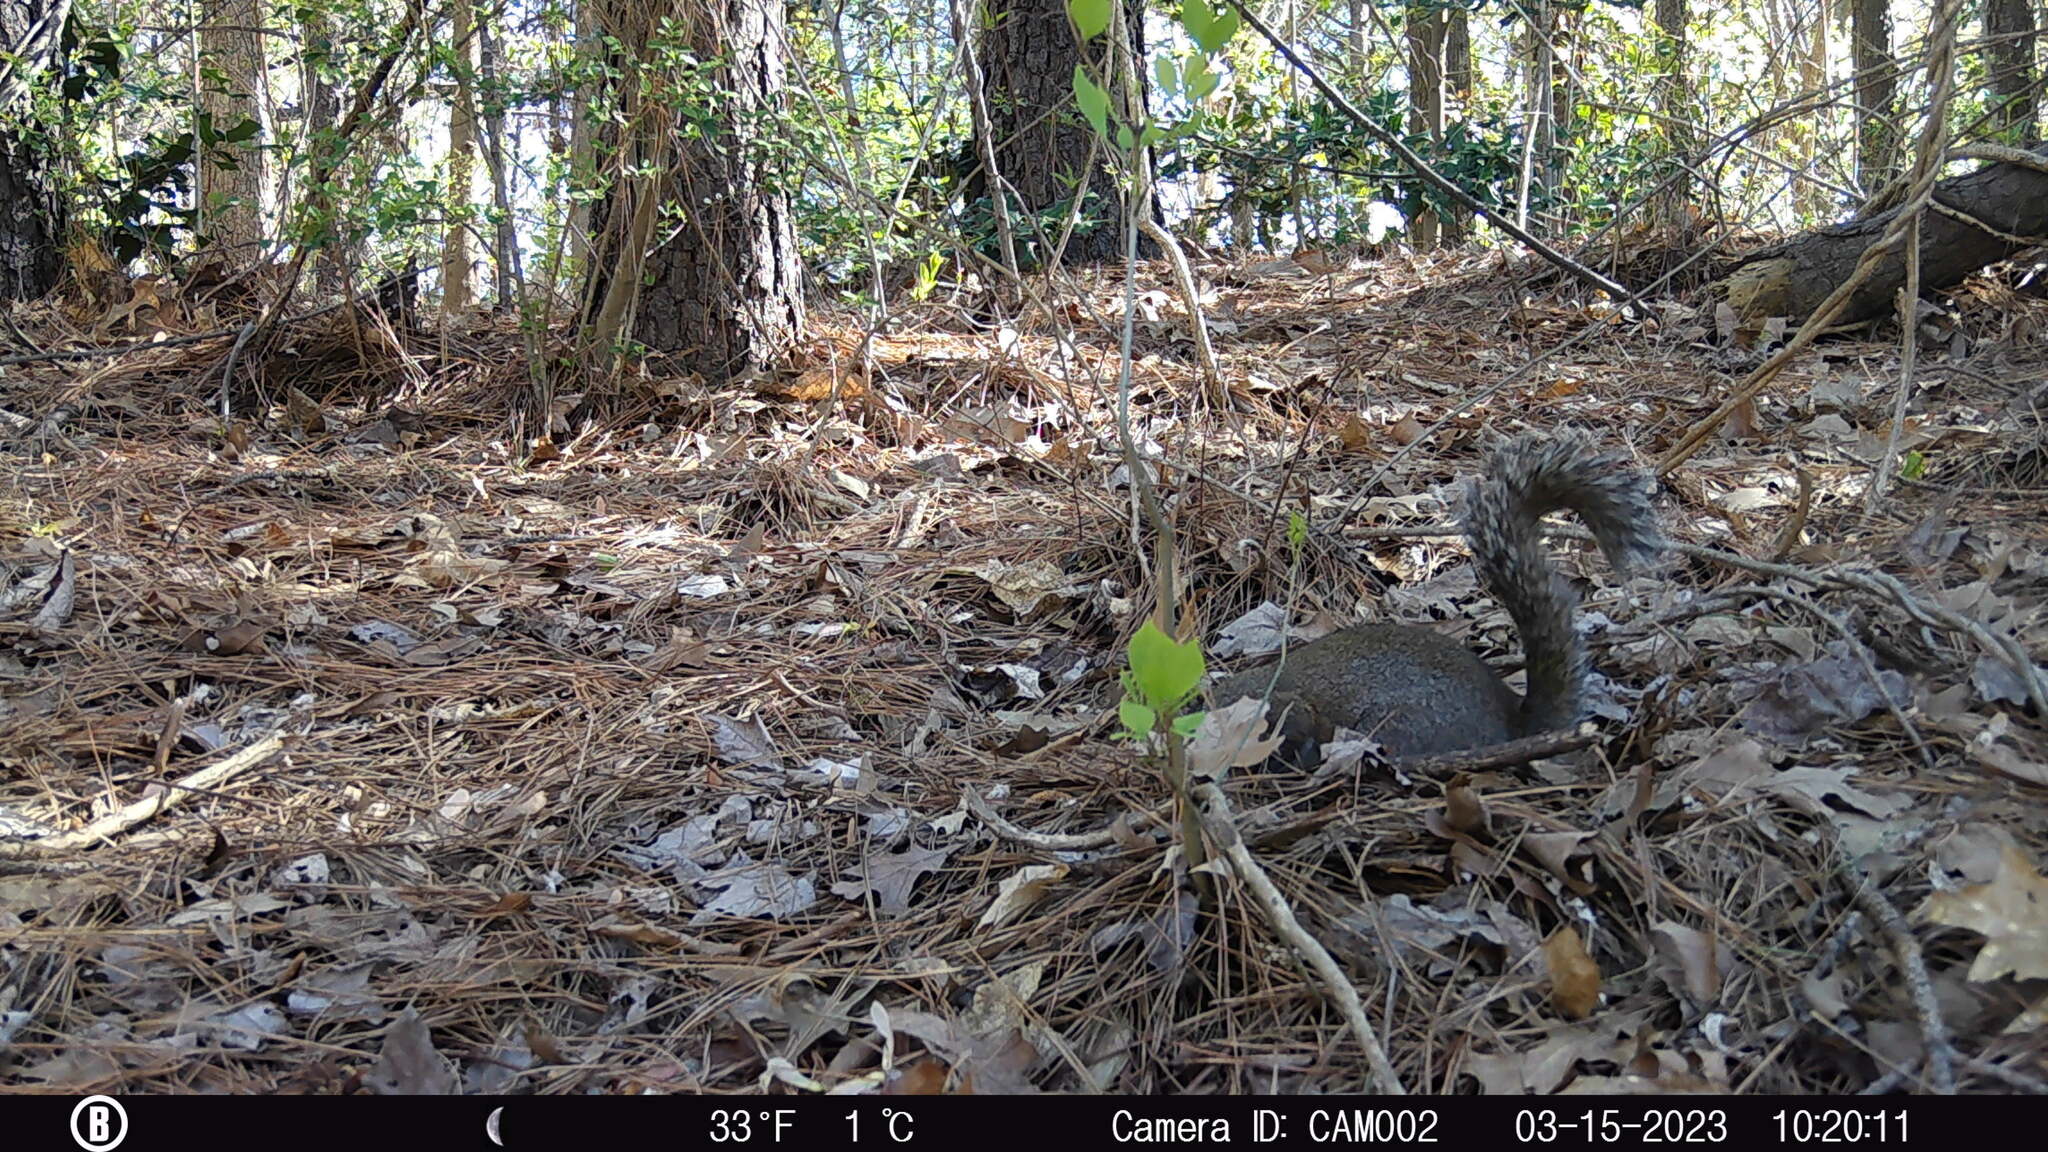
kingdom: Animalia
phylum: Chordata
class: Mammalia
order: Rodentia
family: Sciuridae
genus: Sciurus
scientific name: Sciurus carolinensis
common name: Eastern gray squirrel
